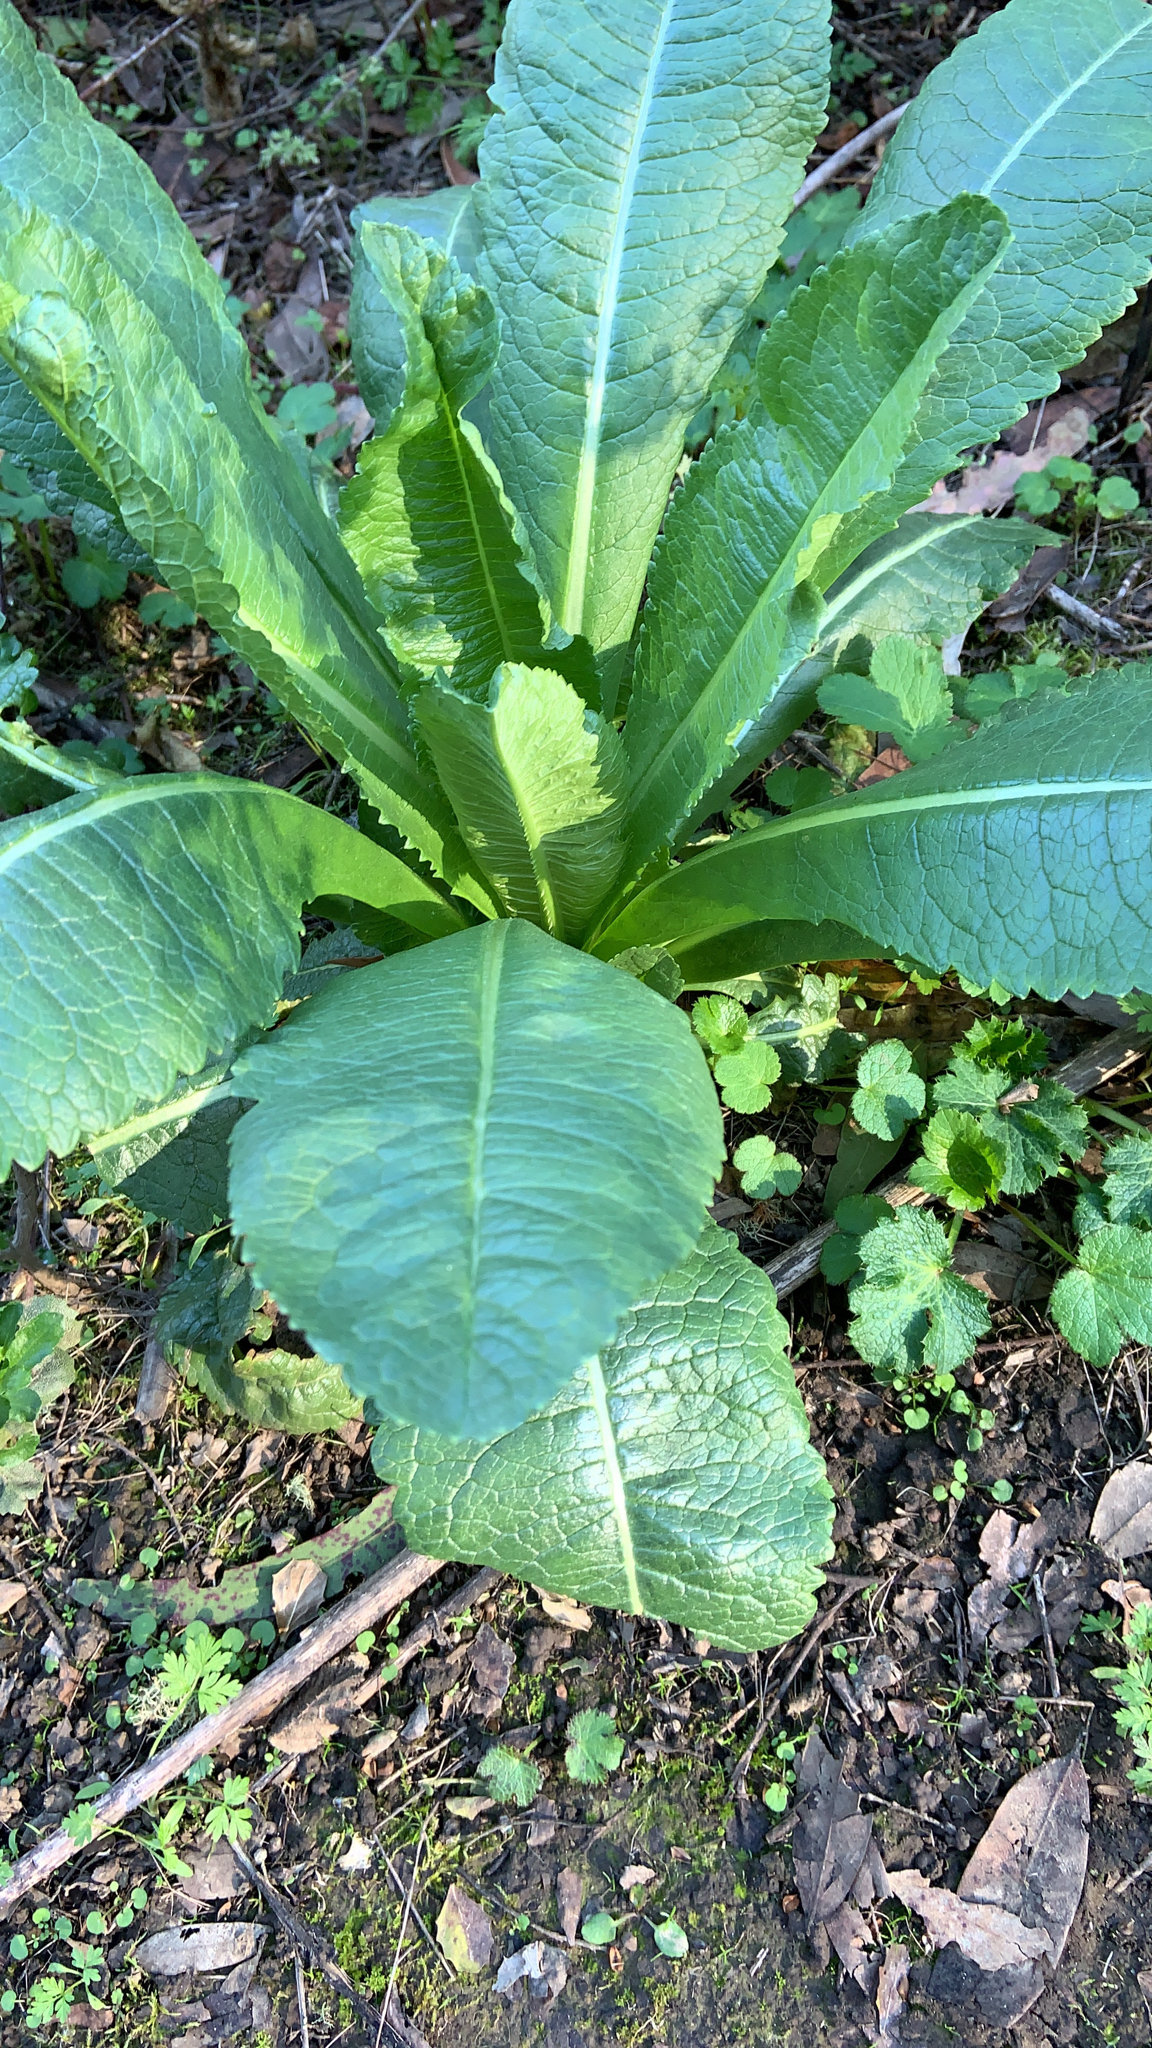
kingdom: Plantae
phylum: Tracheophyta
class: Magnoliopsida
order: Dipsacales
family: Caprifoliaceae
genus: Dipsacus
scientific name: Dipsacus sativus
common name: Fuller's teasel
